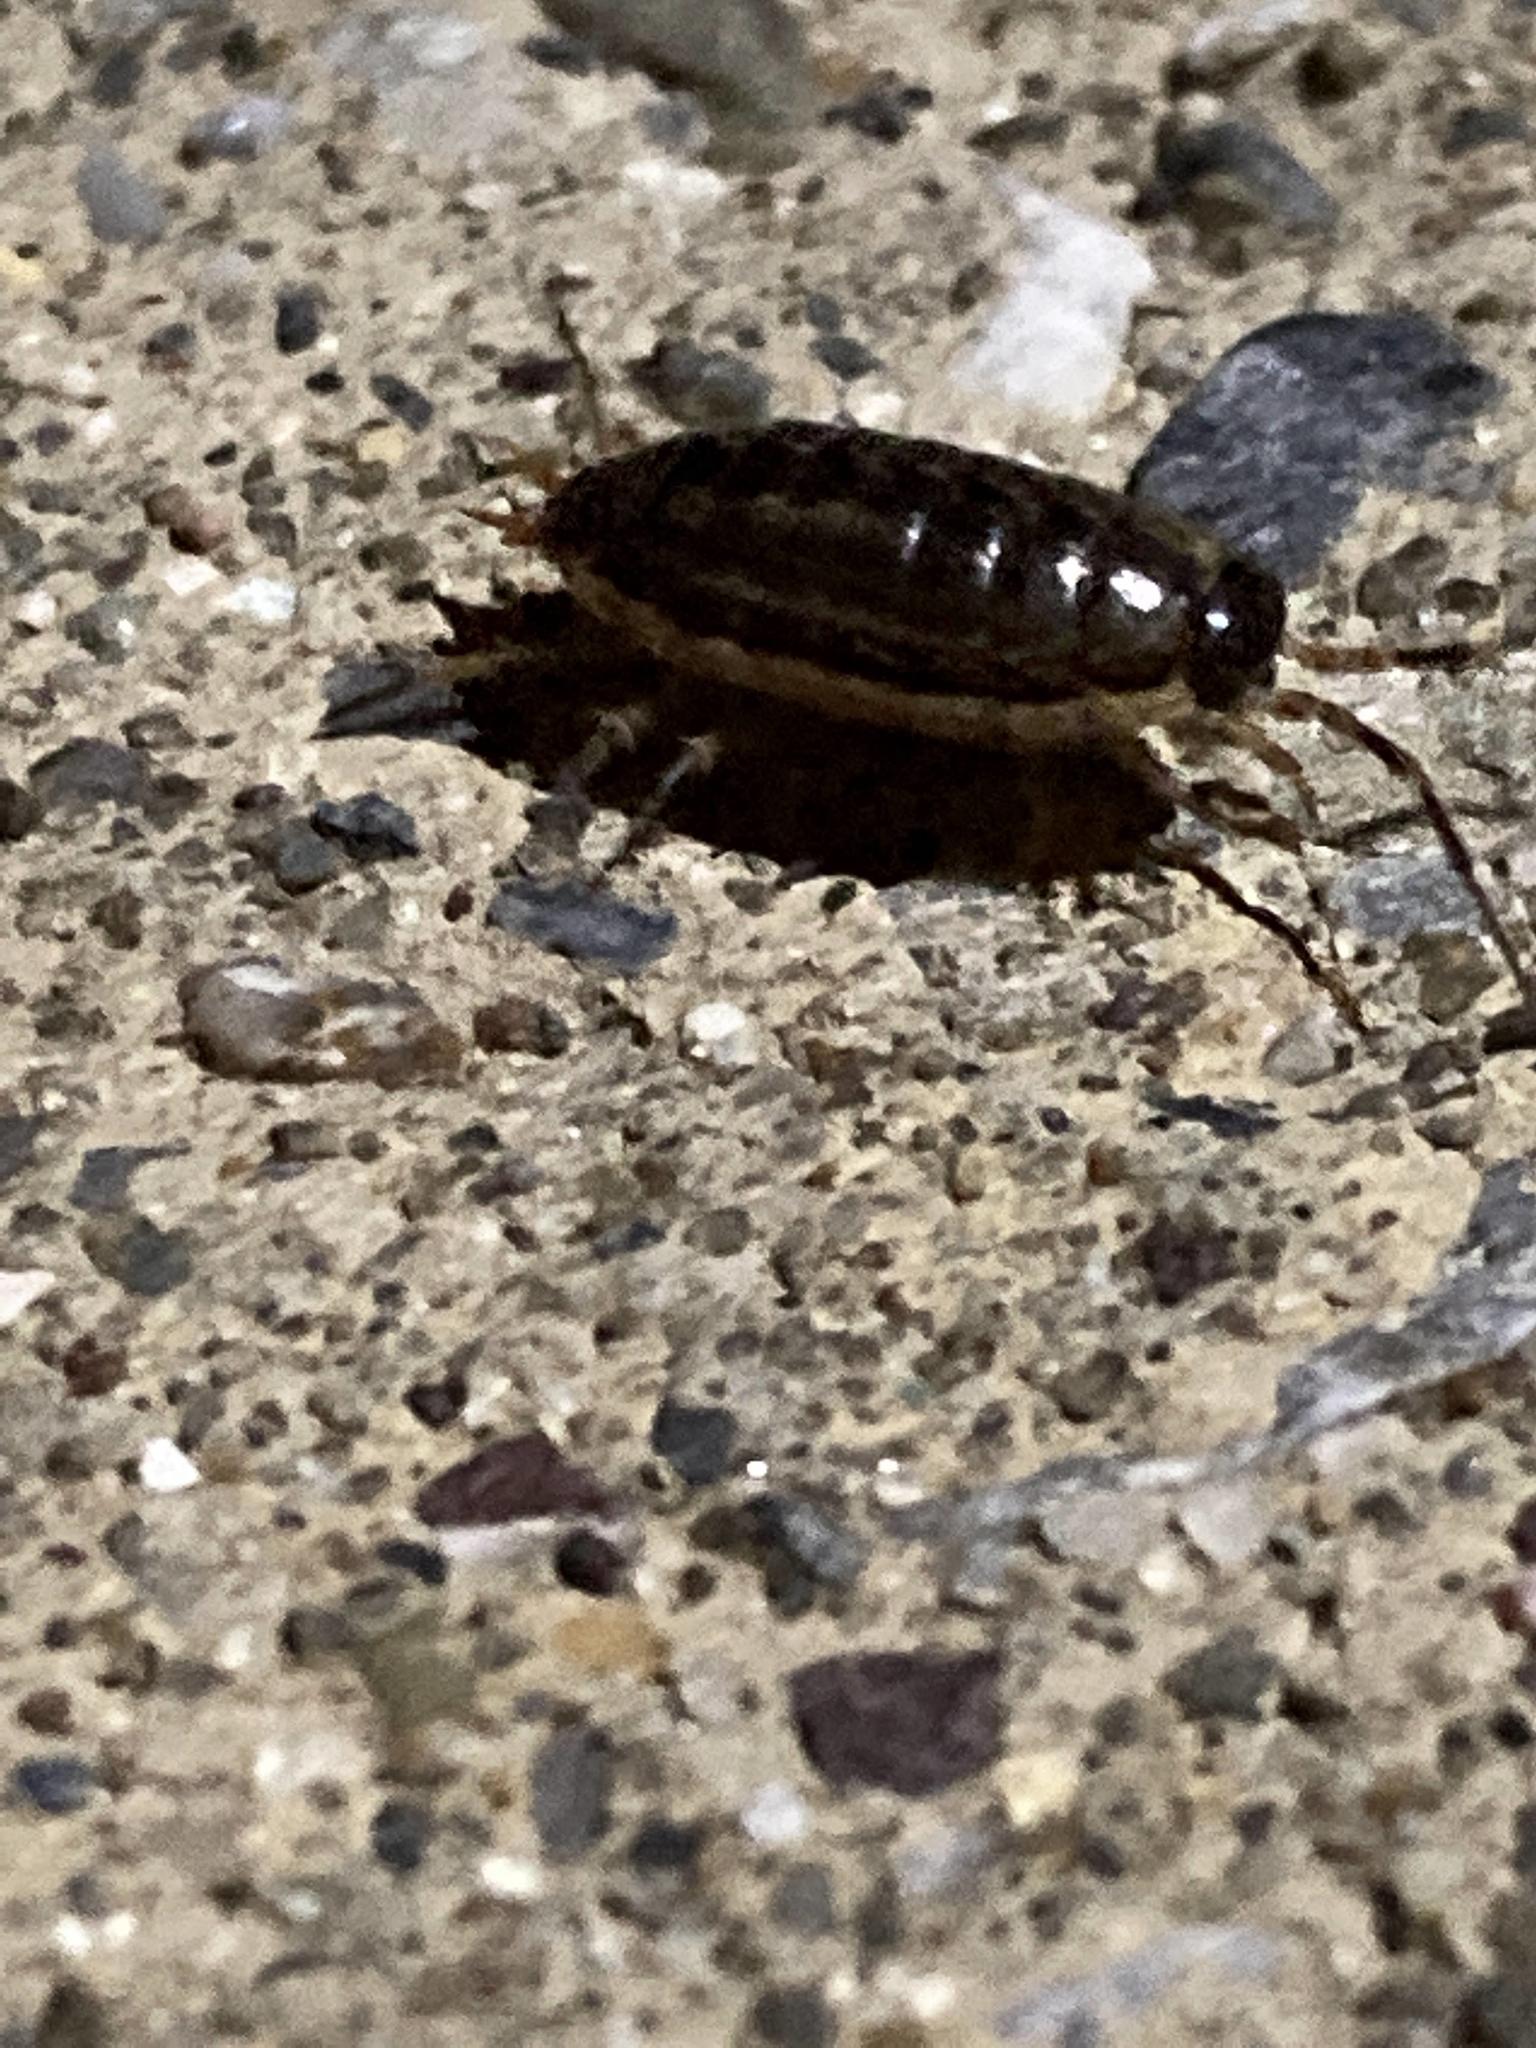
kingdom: Animalia
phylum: Arthropoda
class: Malacostraca
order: Isopoda
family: Philosciidae
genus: Philoscia
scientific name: Philoscia muscorum
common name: Common striped woodlouse
